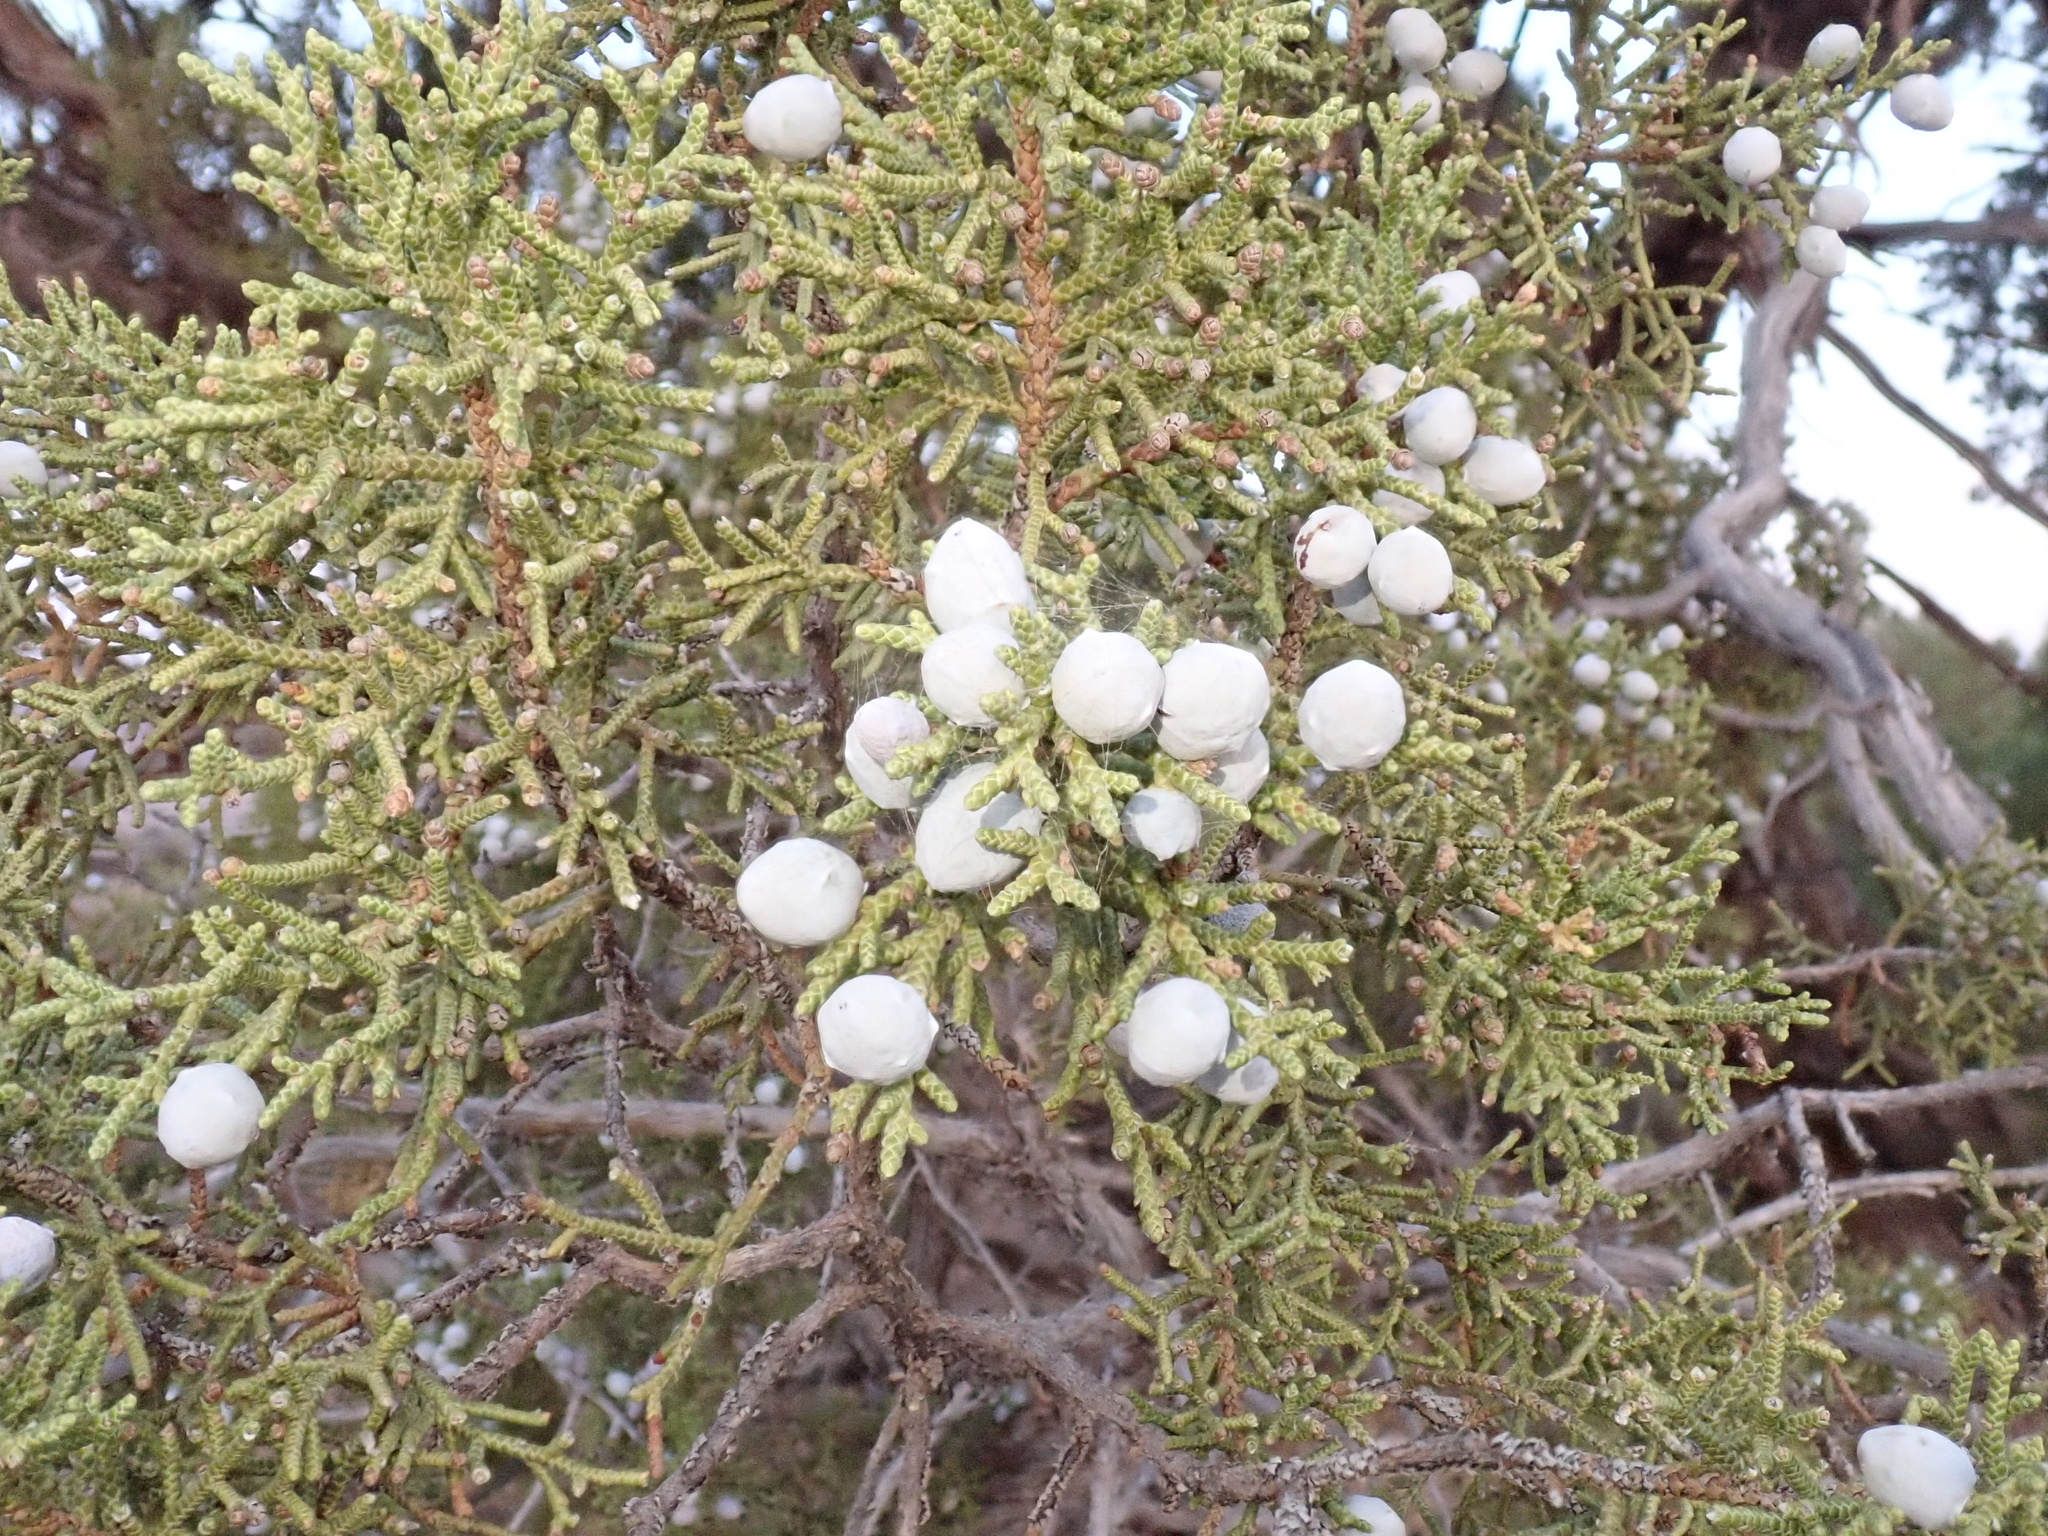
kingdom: Plantae
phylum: Tracheophyta
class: Pinopsida
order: Pinales
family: Cupressaceae
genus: Juniperus
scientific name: Juniperus osteosperma
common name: Utah juniper
